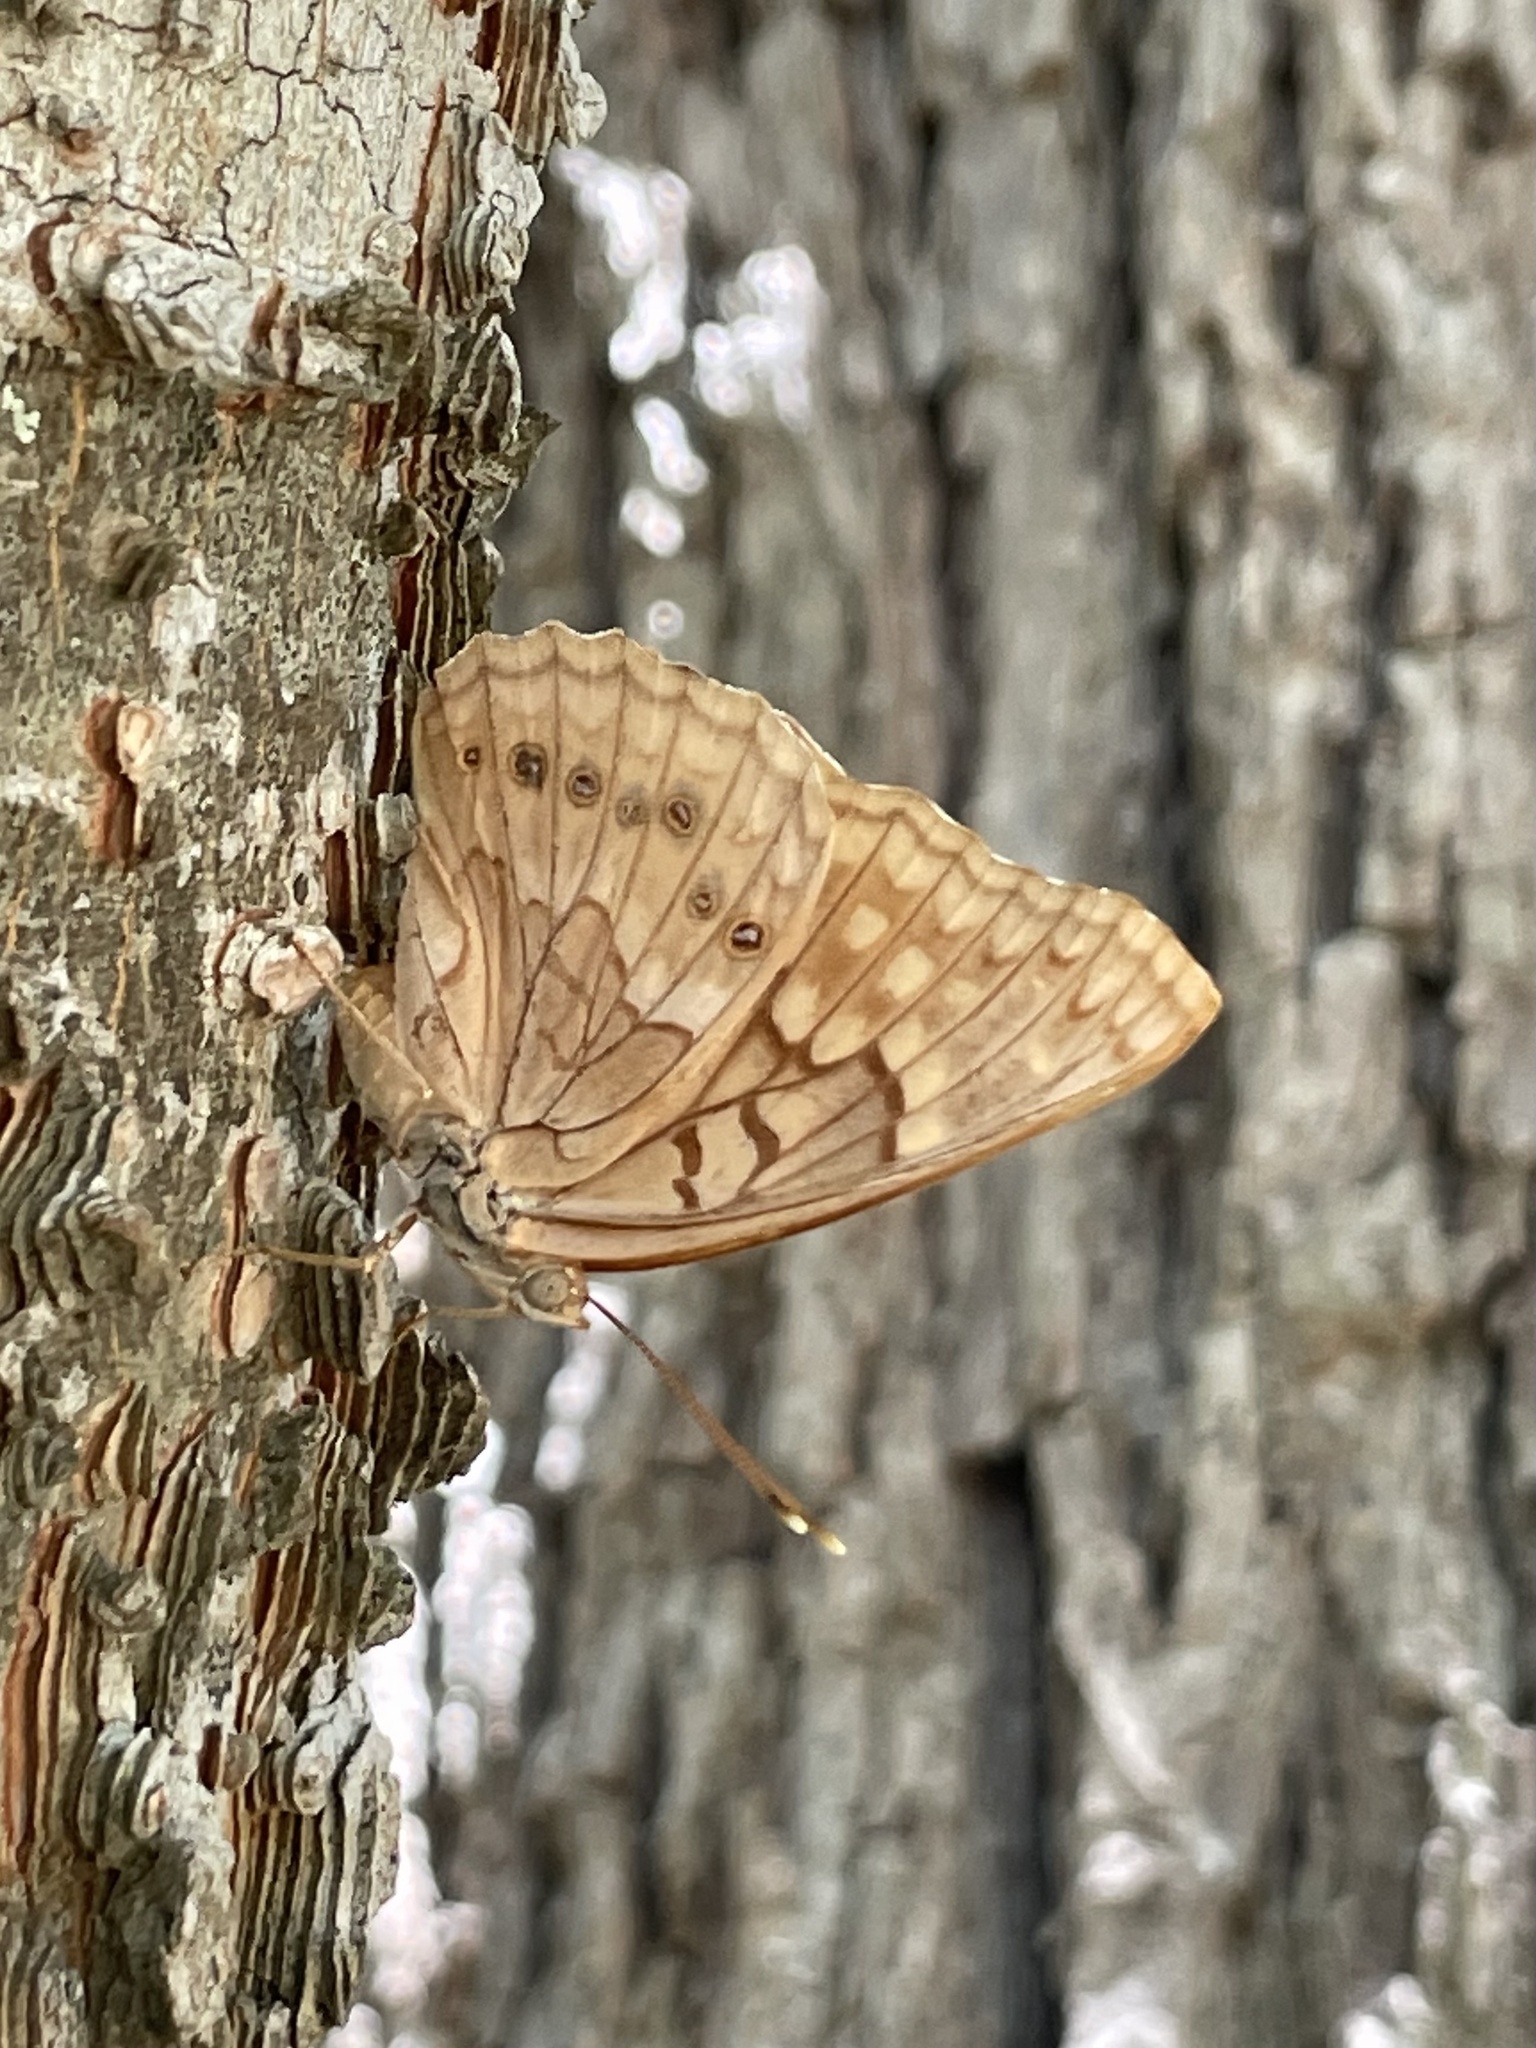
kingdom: Animalia
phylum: Arthropoda
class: Insecta
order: Lepidoptera
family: Nymphalidae
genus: Asterocampa
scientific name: Asterocampa clyton
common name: Tawny emperor
